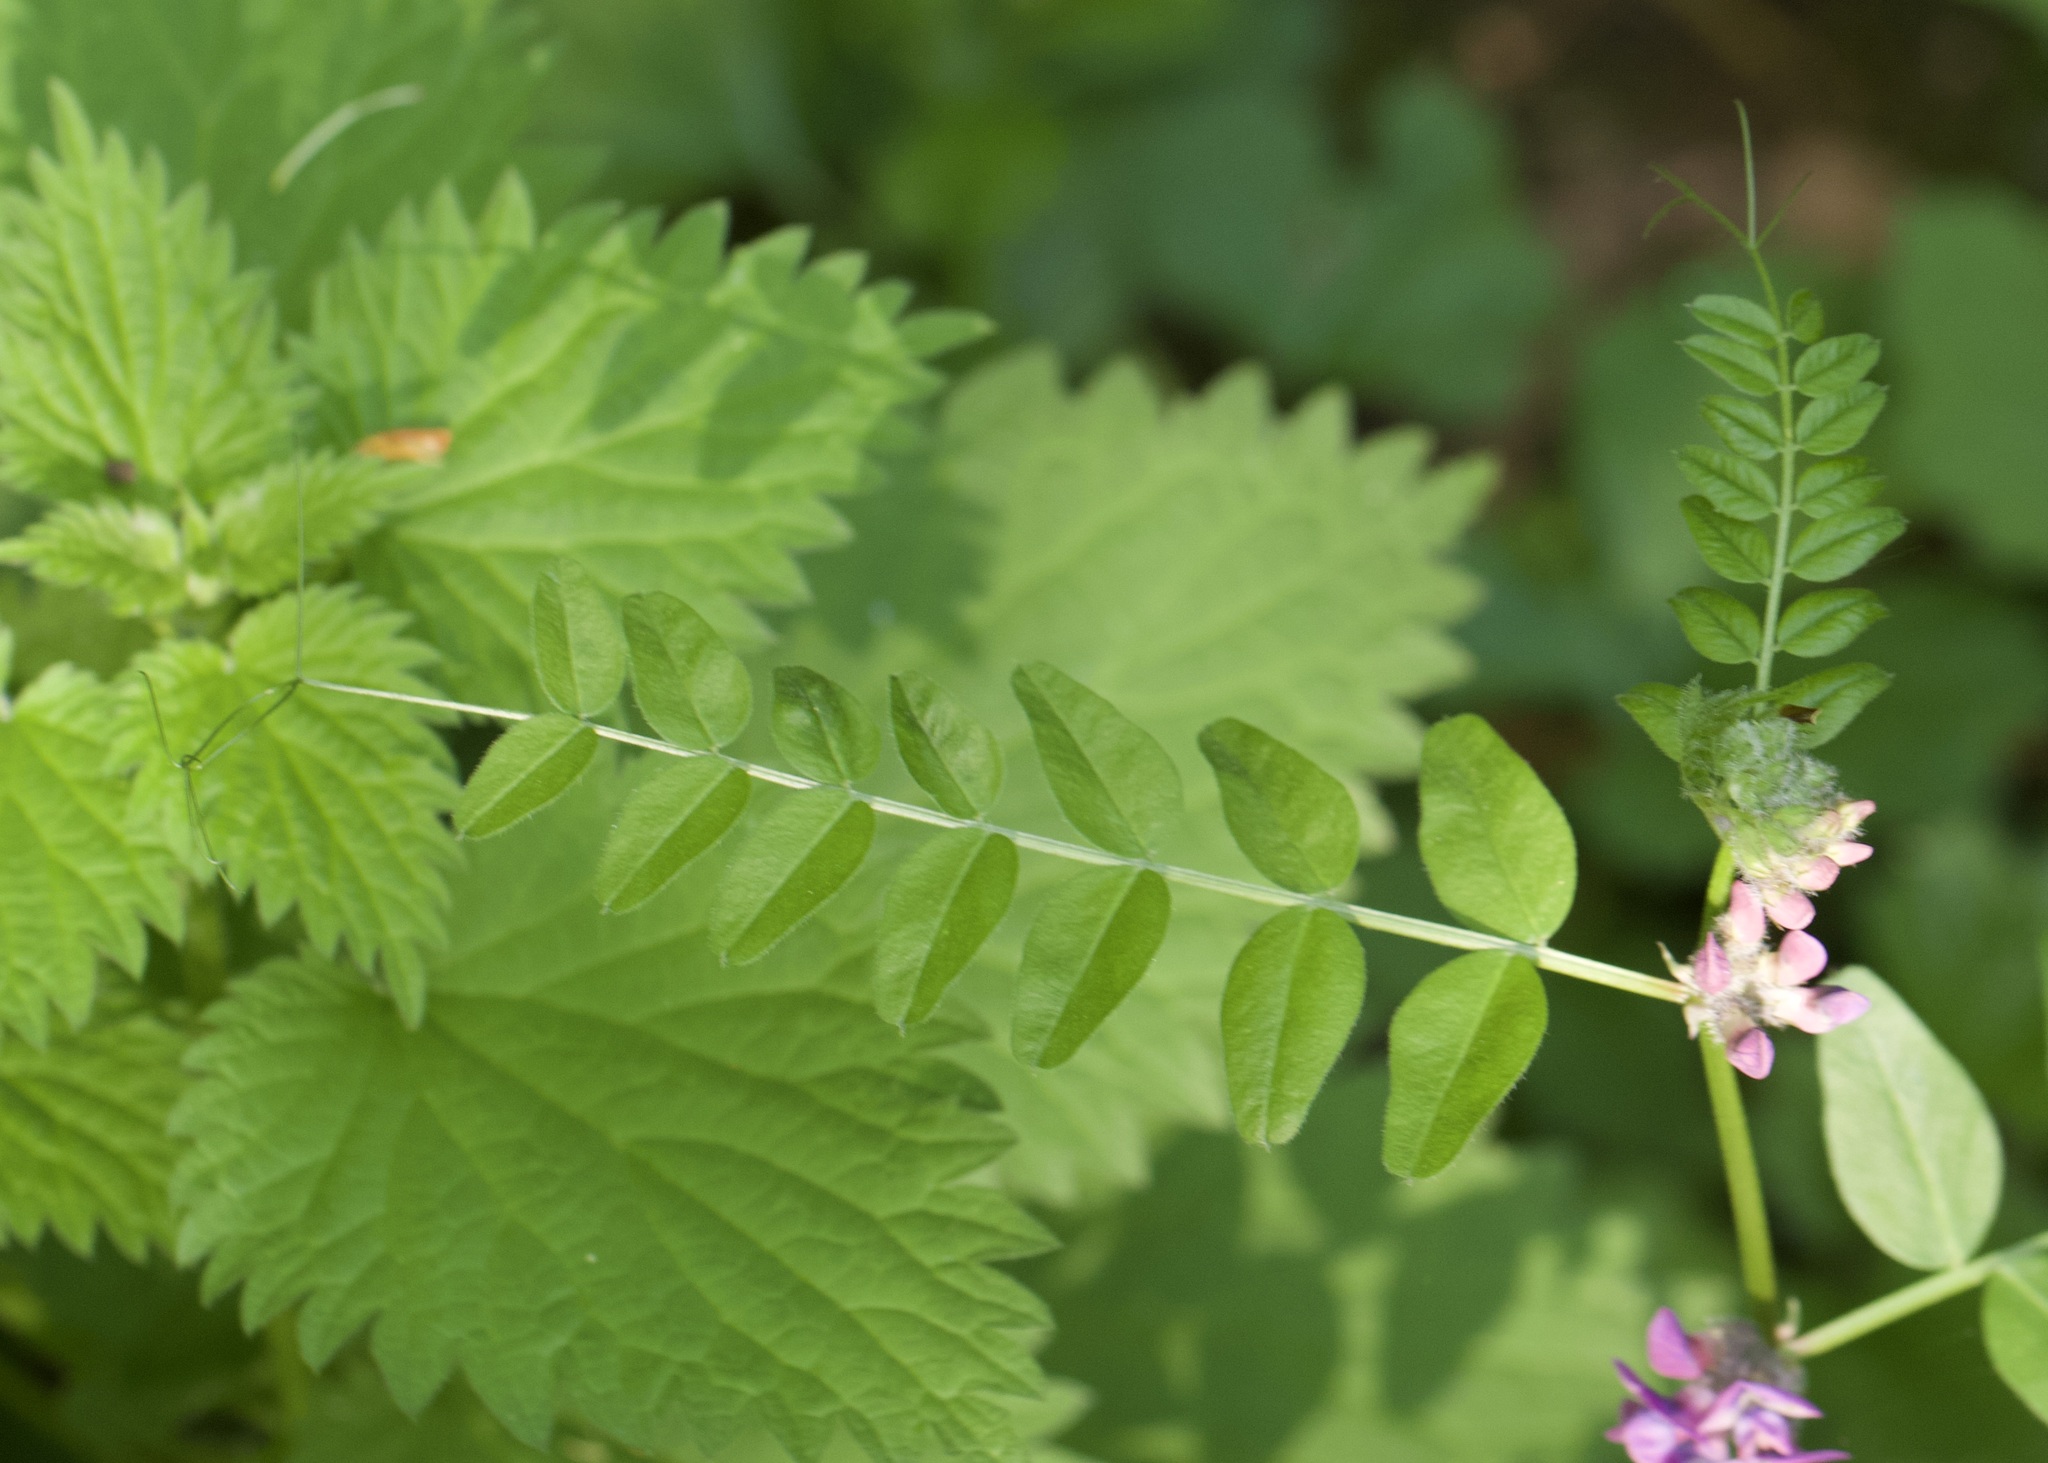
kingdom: Plantae
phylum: Tracheophyta
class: Magnoliopsida
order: Fabales
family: Fabaceae
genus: Vicia
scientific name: Vicia sepium
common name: Bush vetch
